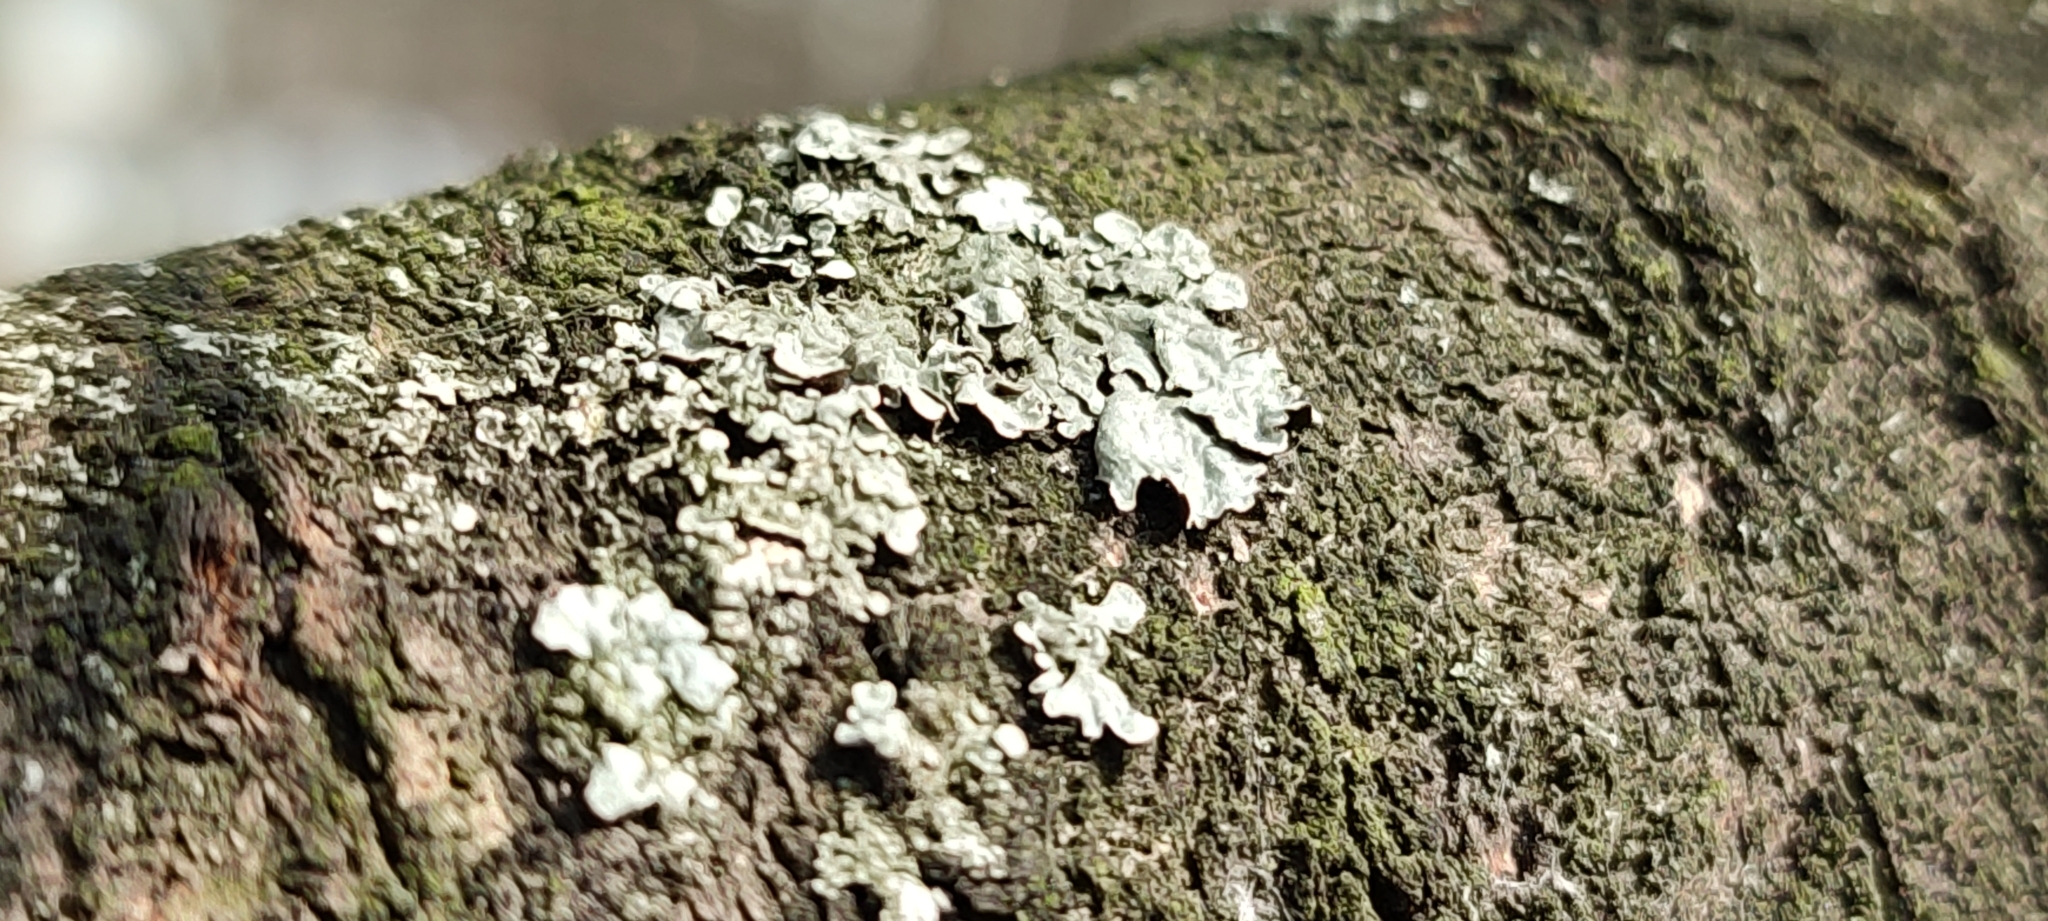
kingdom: Fungi
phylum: Ascomycota
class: Lecanoromycetes
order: Lecanorales
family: Parmeliaceae
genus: Parmelia
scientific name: Parmelia sulcata
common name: Netted shield lichen
